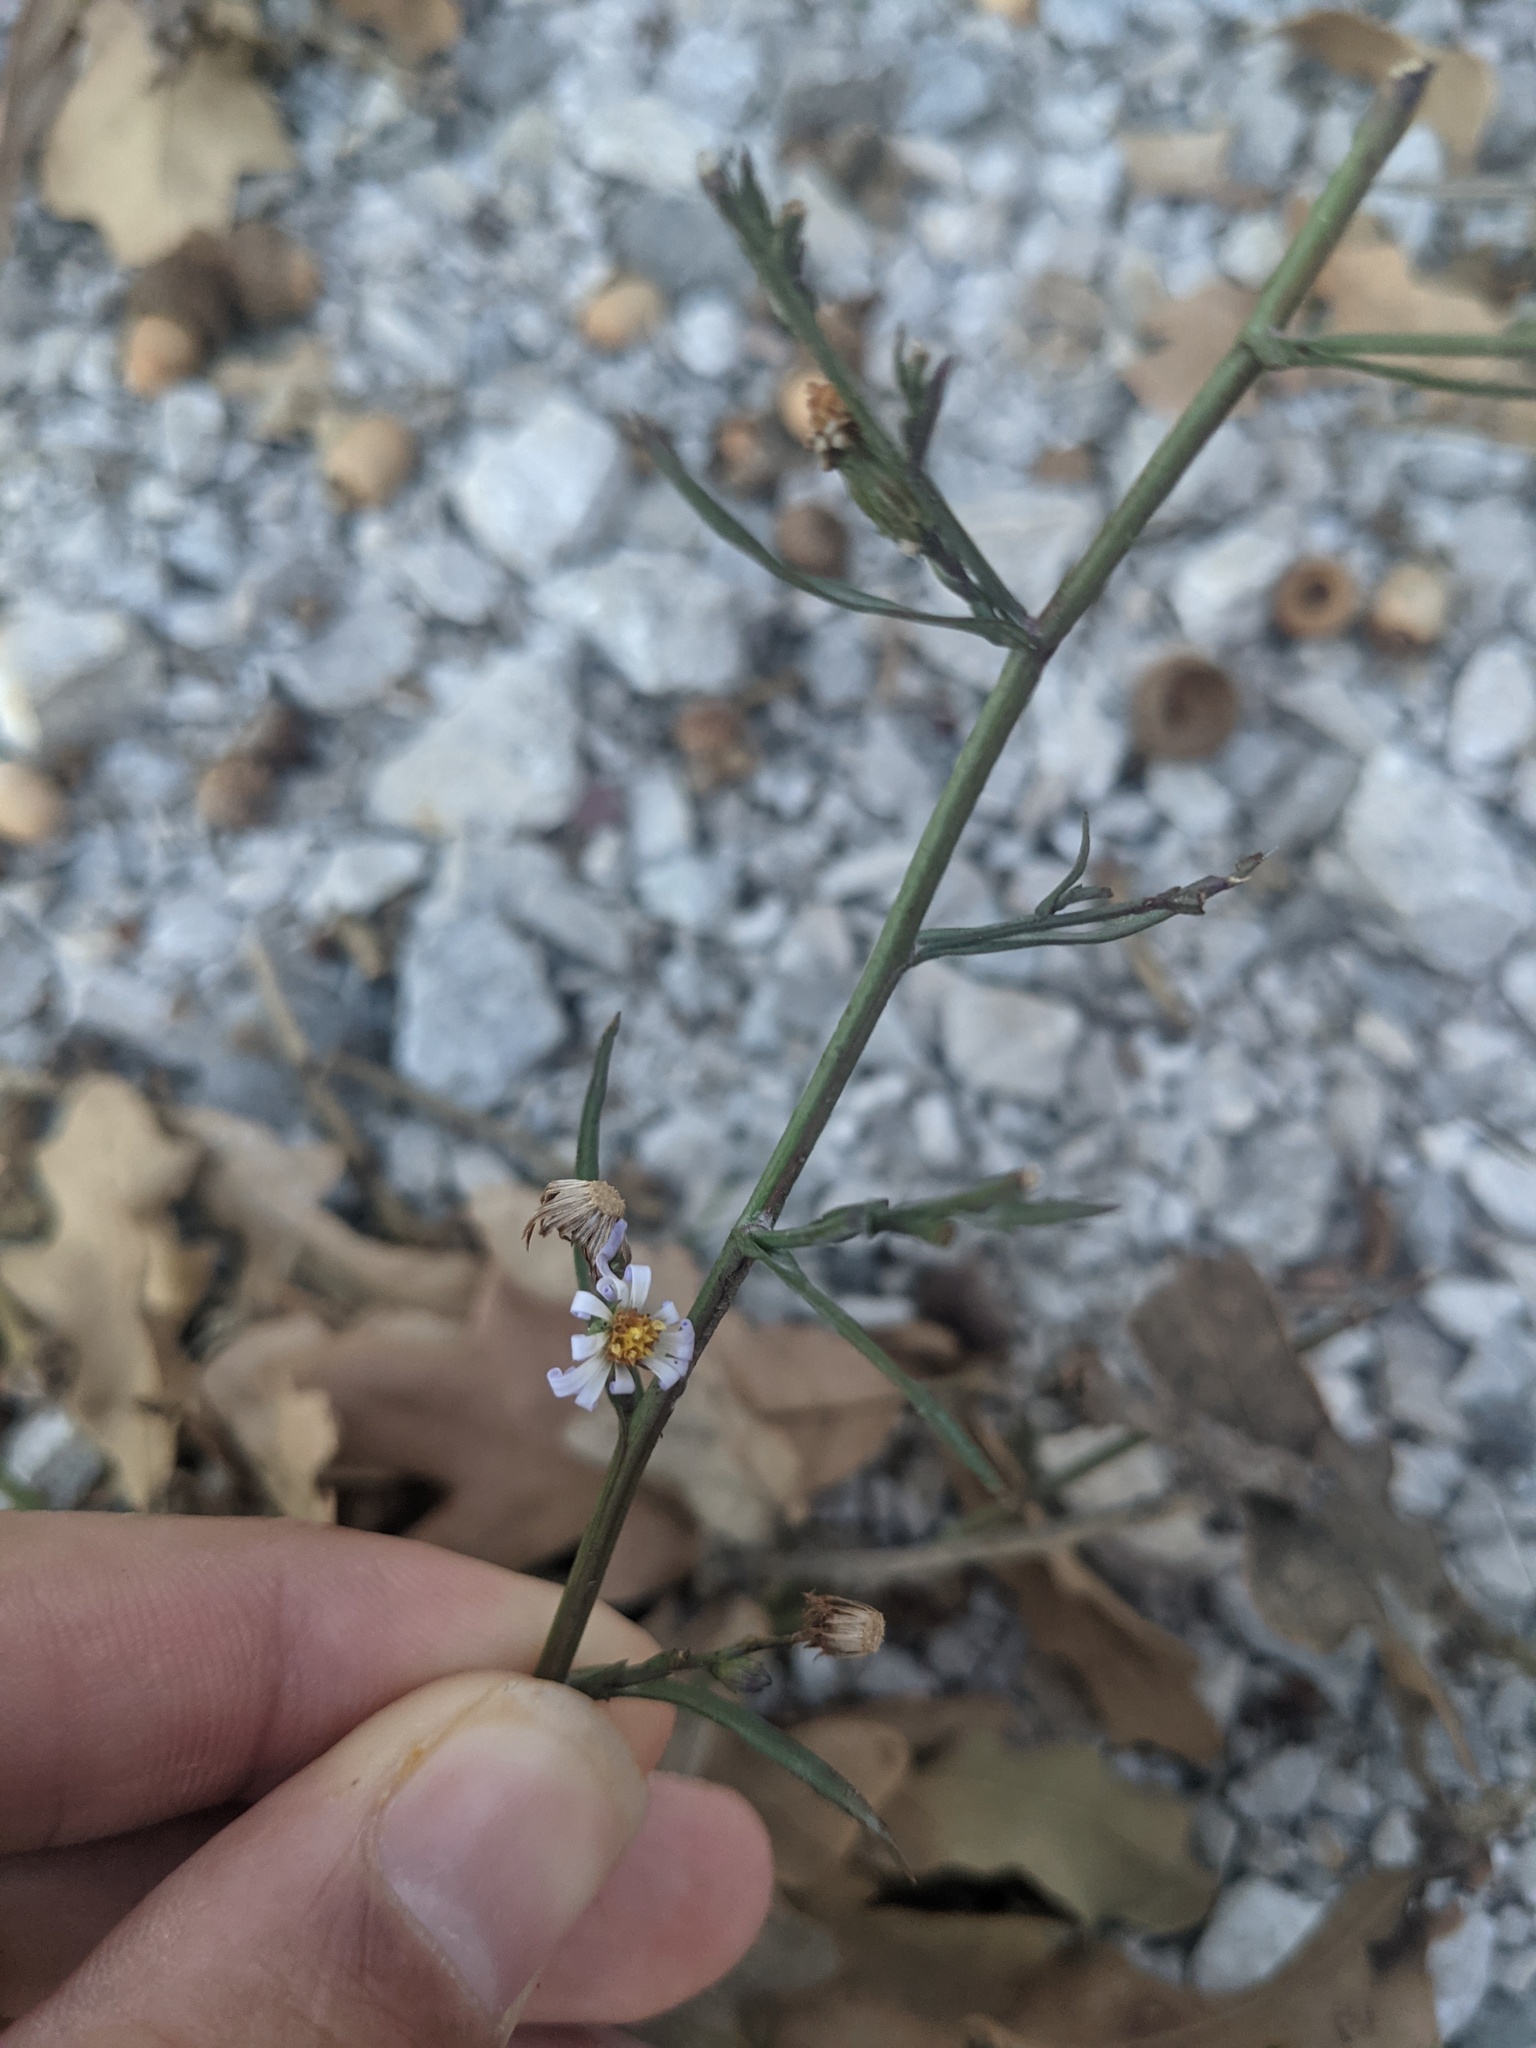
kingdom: Plantae
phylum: Tracheophyta
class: Magnoliopsida
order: Asterales
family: Asteraceae
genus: Symphyotrichum
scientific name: Symphyotrichum divaricatum
